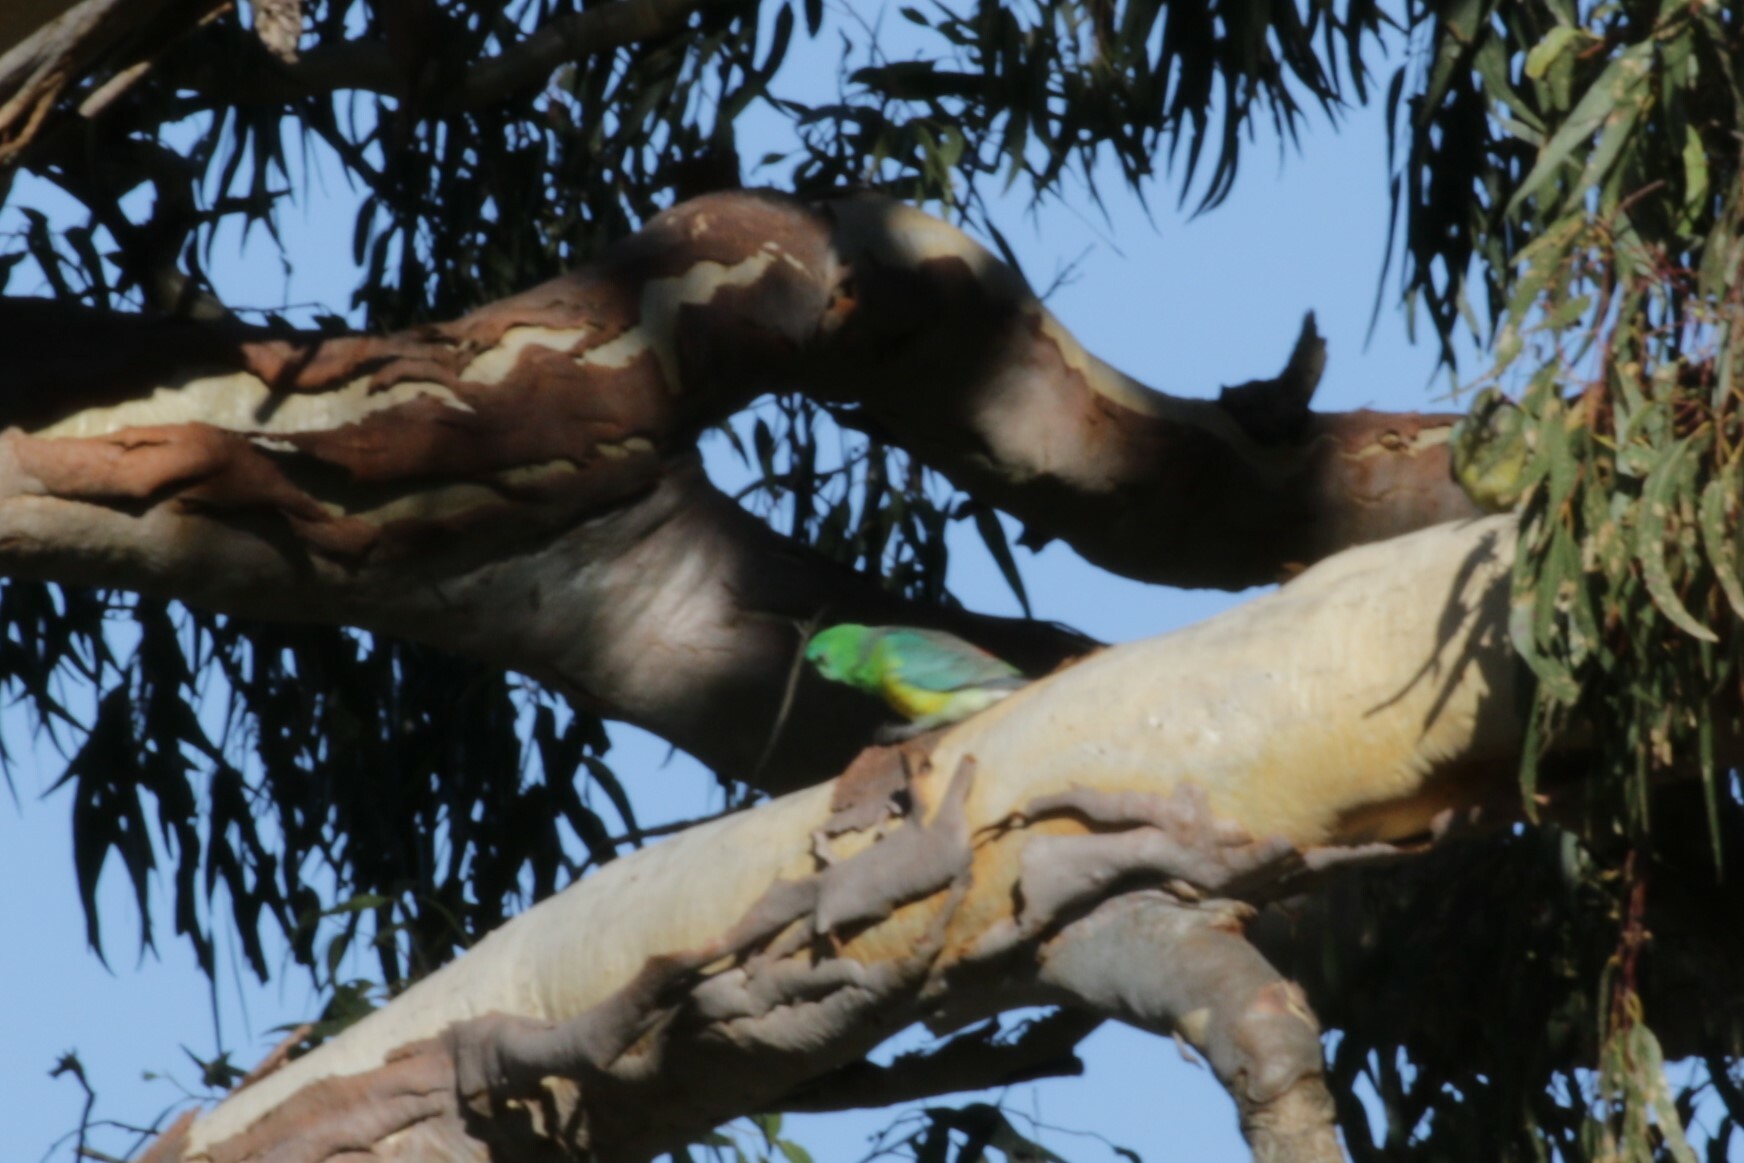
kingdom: Animalia
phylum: Chordata
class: Aves
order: Psittaciformes
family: Psittacidae
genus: Psephotus
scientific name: Psephotus haematonotus
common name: Red-rumped parrot
